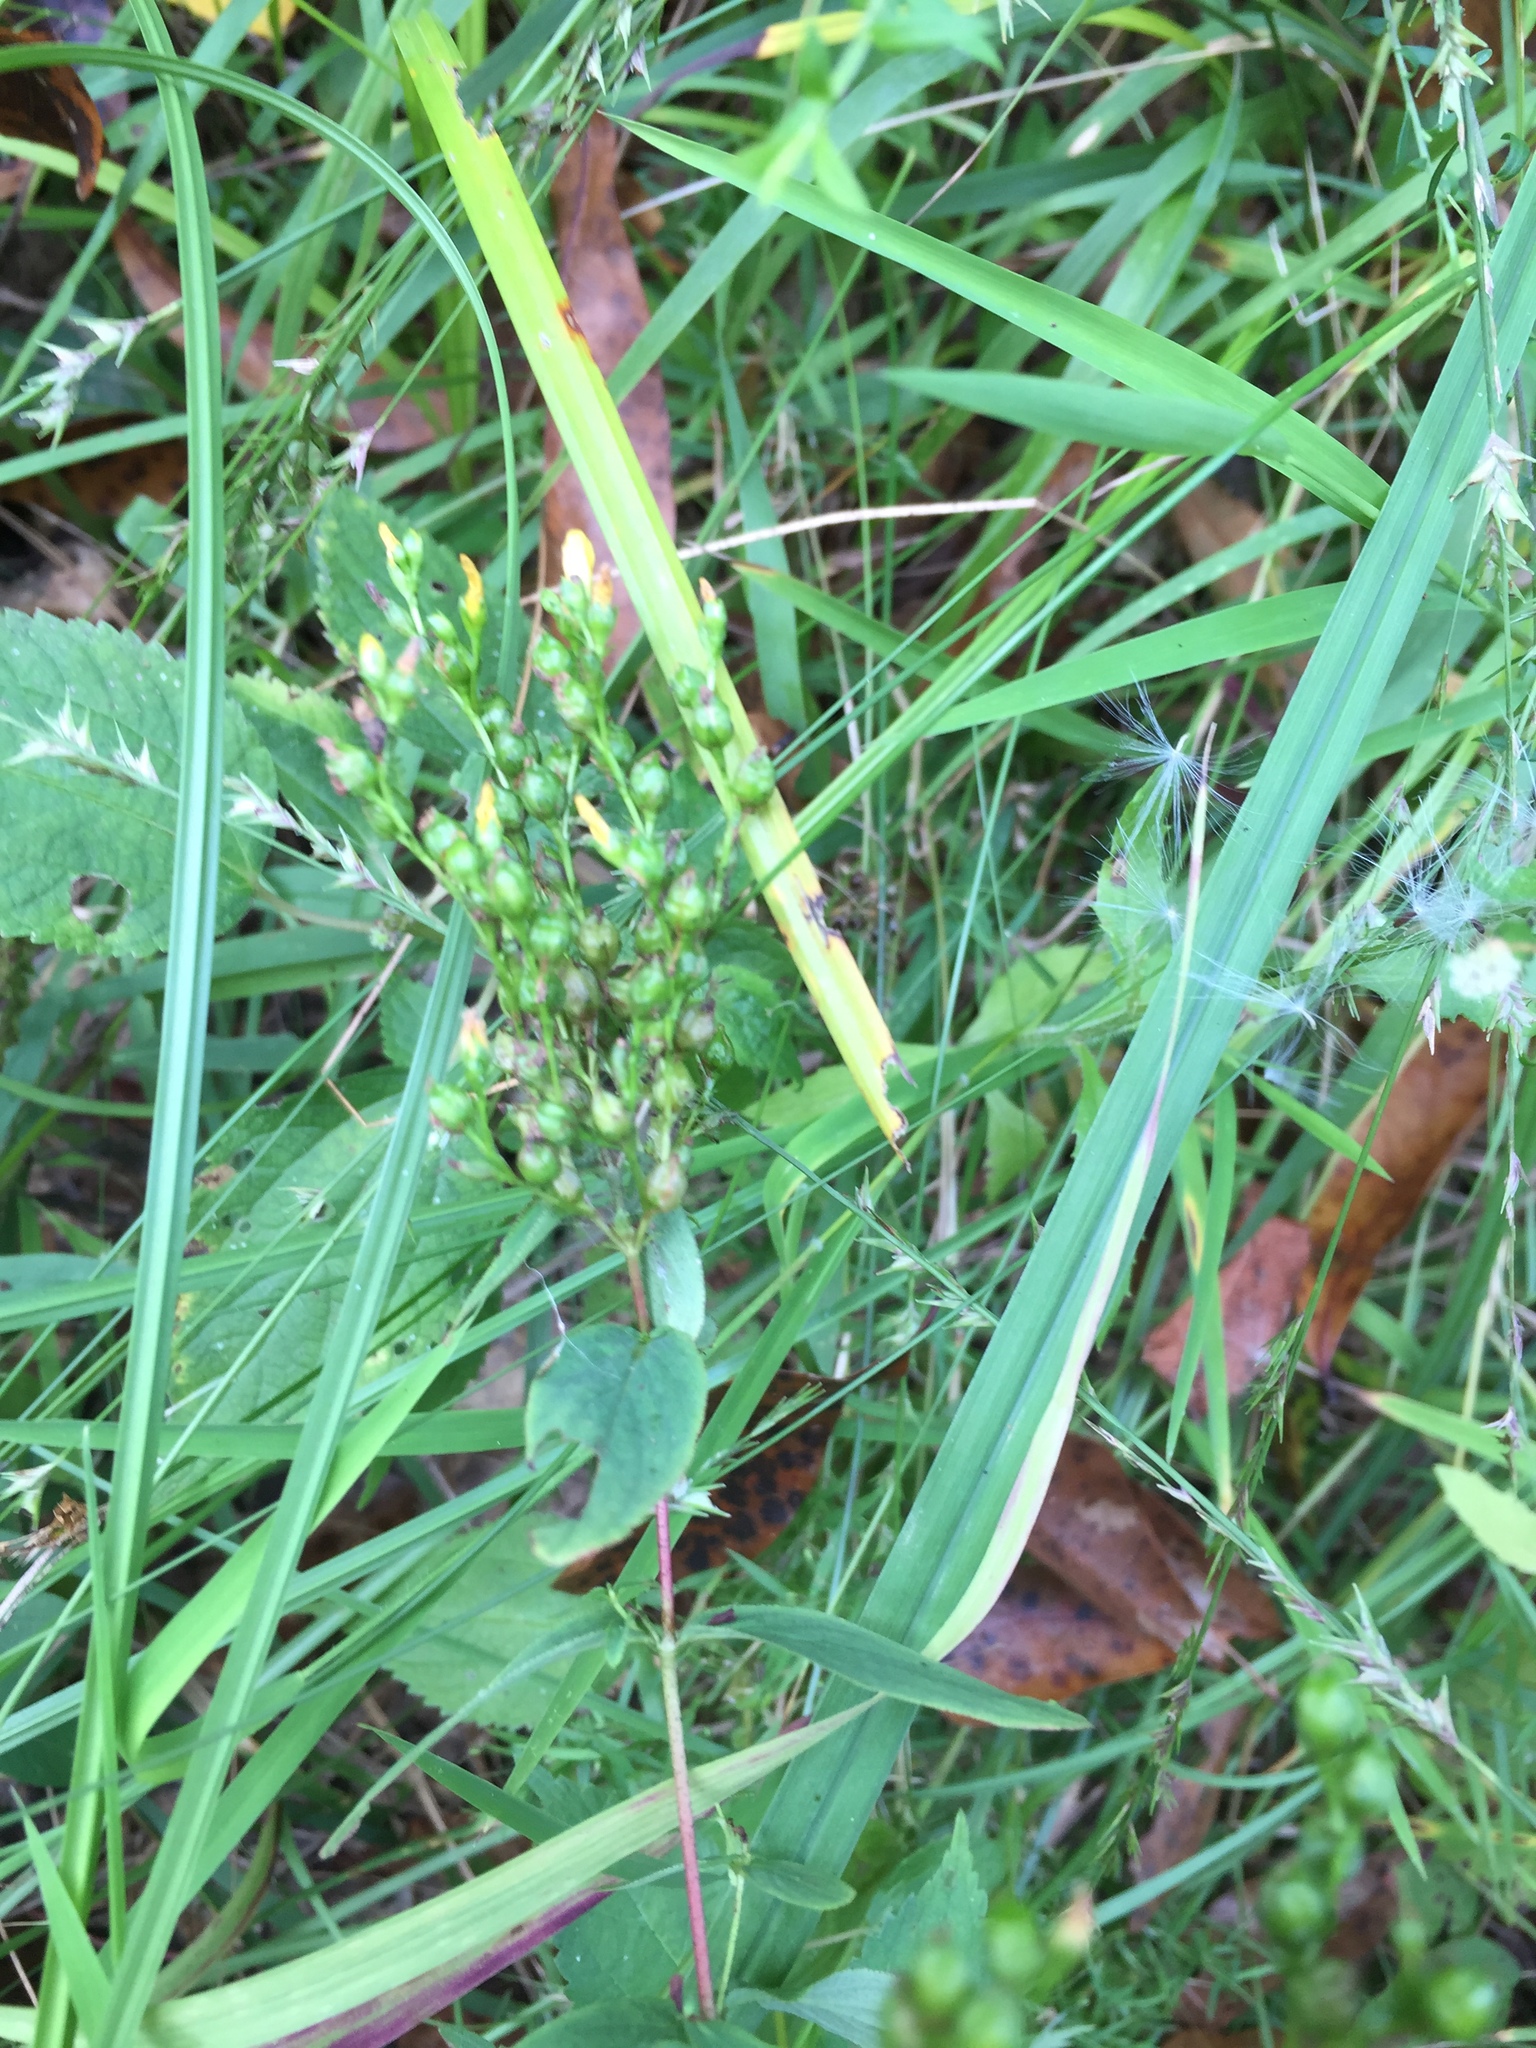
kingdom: Plantae
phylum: Tracheophyta
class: Magnoliopsida
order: Malpighiales
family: Hypericaceae
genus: Hypericum
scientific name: Hypericum punctatum
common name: Spotted st. john's-wort
